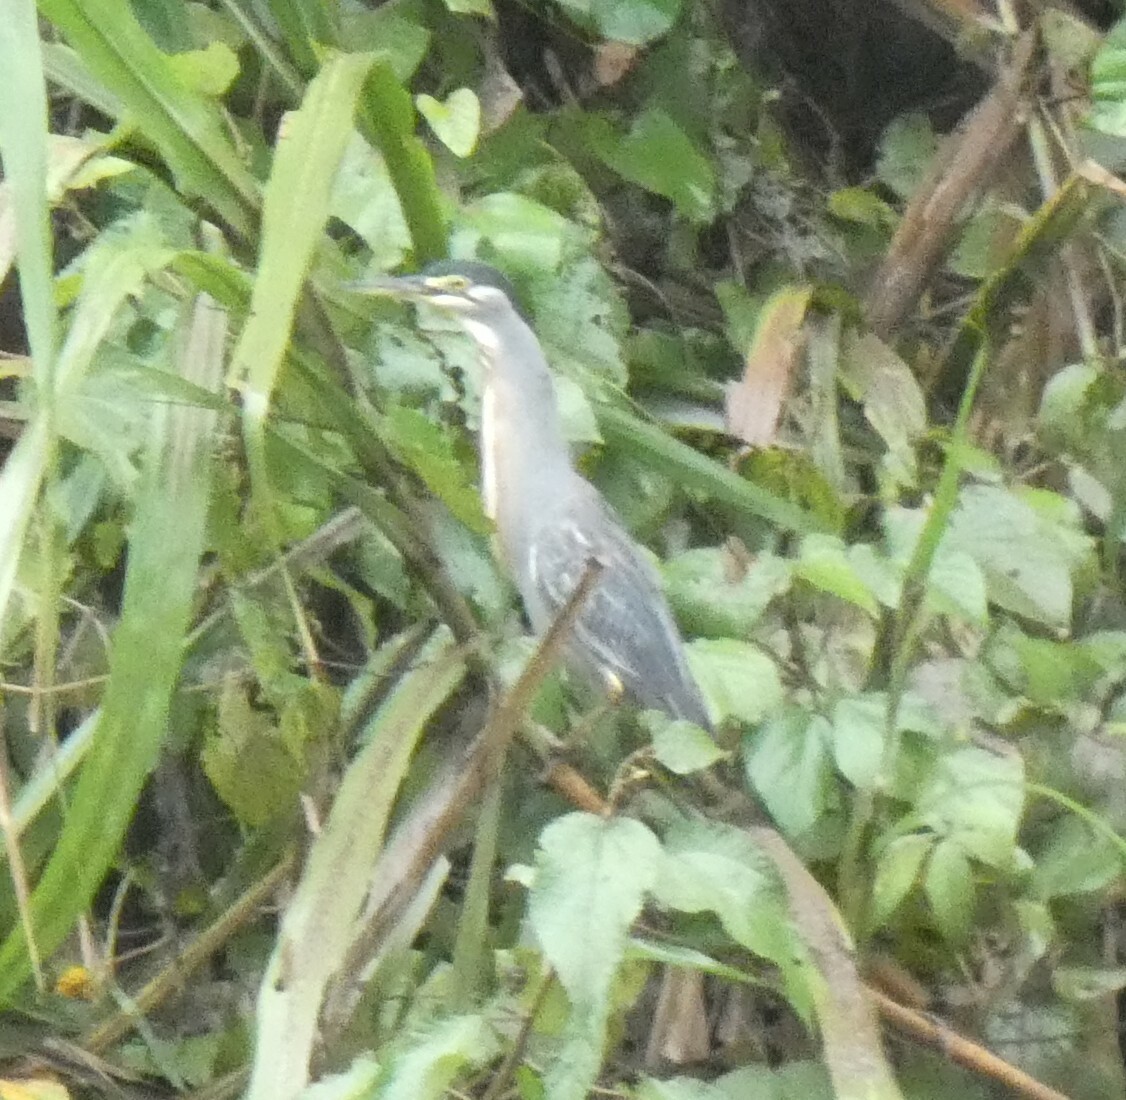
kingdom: Animalia
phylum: Chordata
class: Aves
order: Pelecaniformes
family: Ardeidae
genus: Butorides
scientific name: Butorides striata
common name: Striated heron
